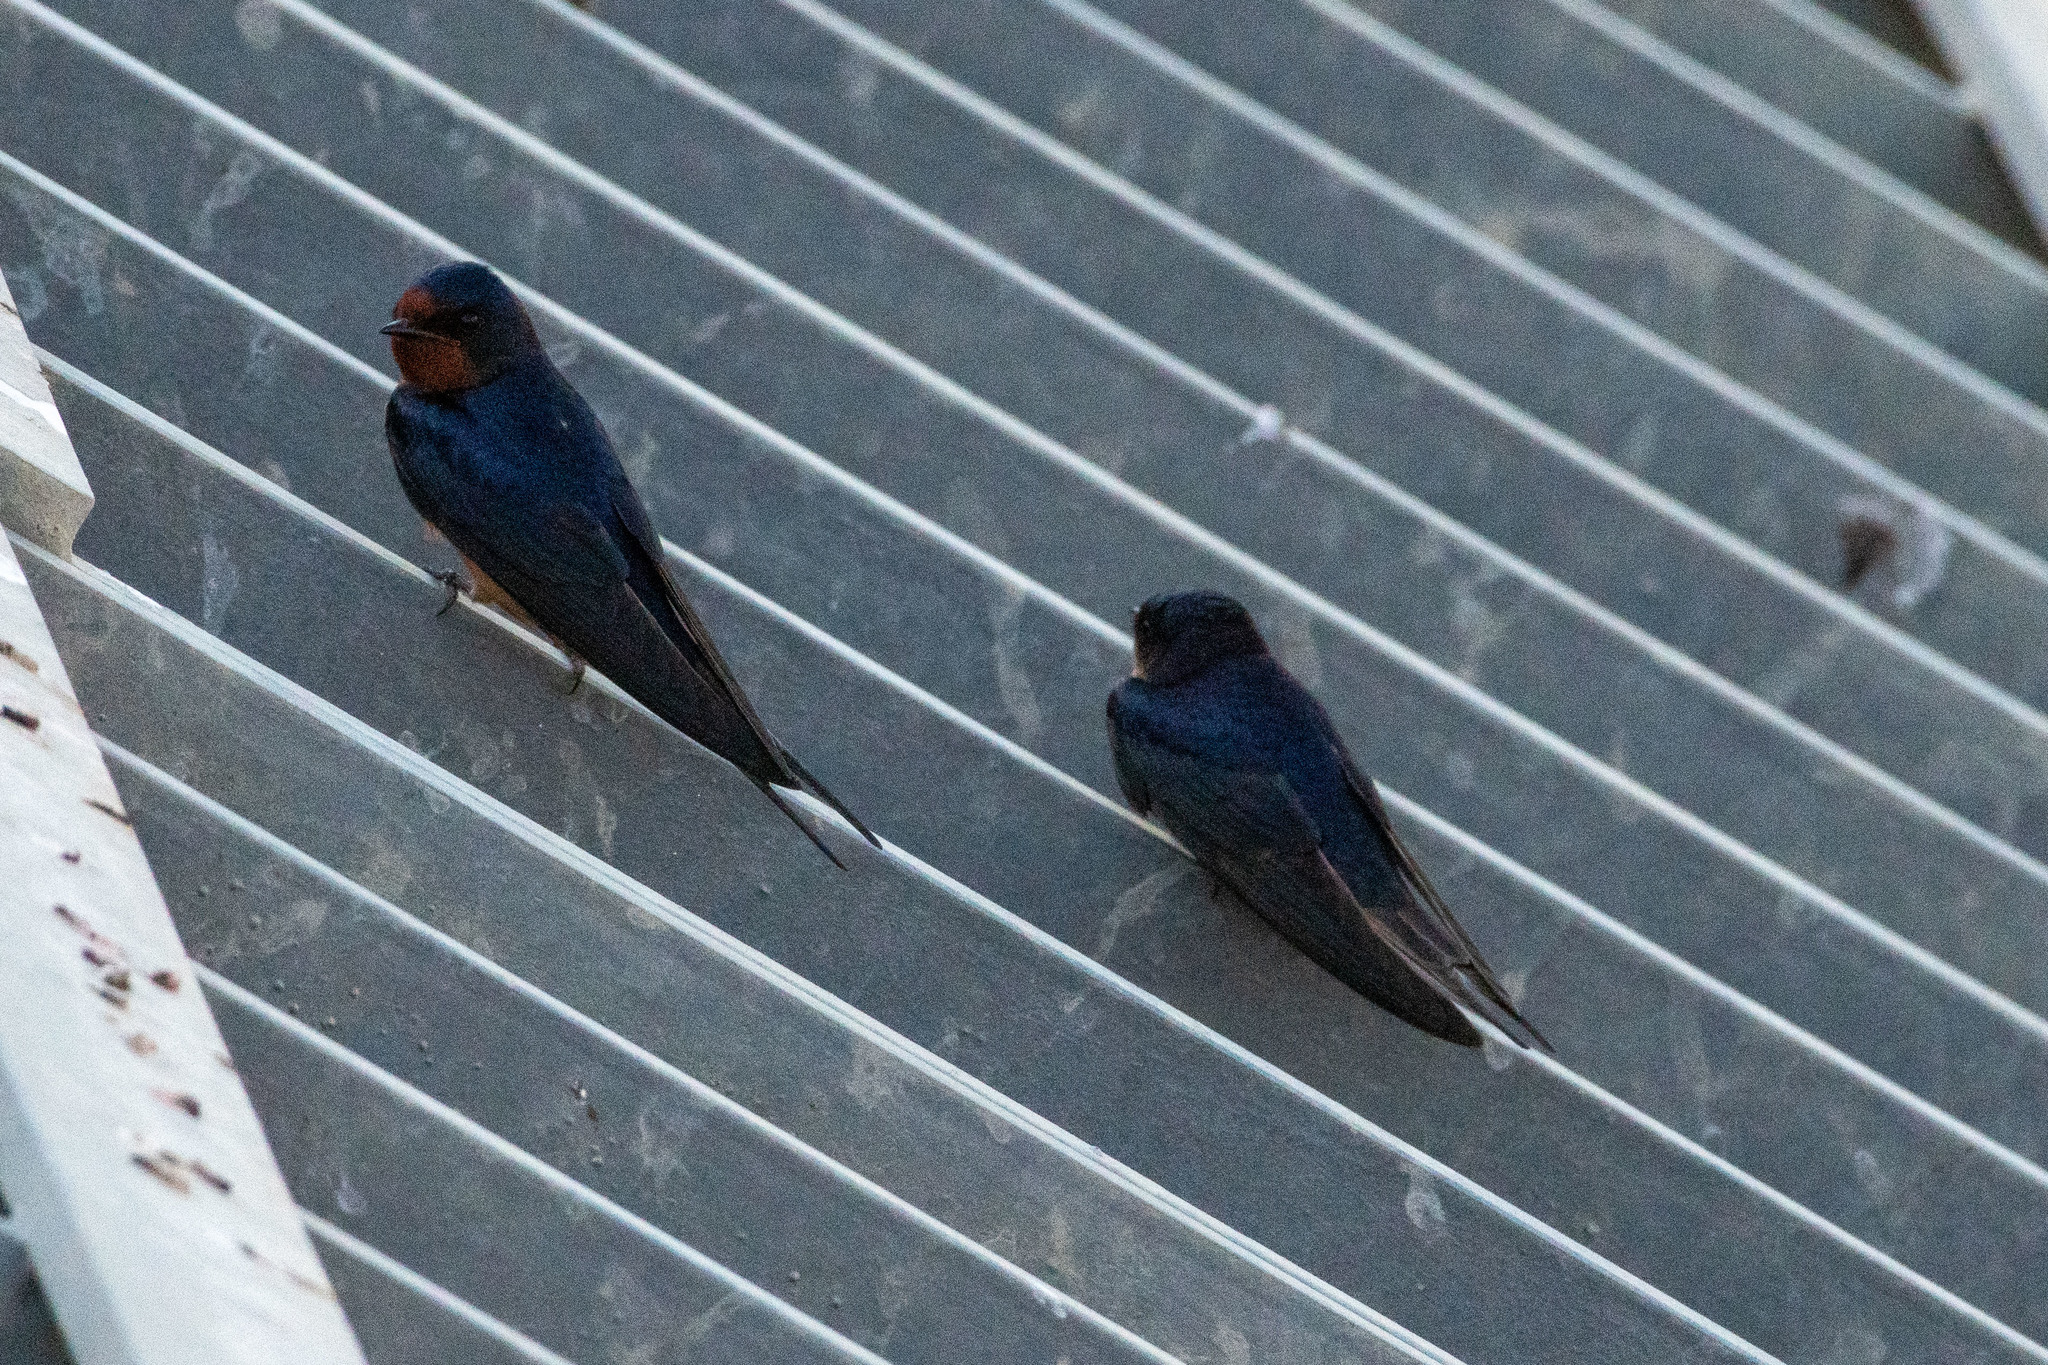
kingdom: Animalia
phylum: Chordata
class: Aves
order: Passeriformes
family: Hirundinidae
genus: Hirundo
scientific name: Hirundo rustica
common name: Barn swallow
